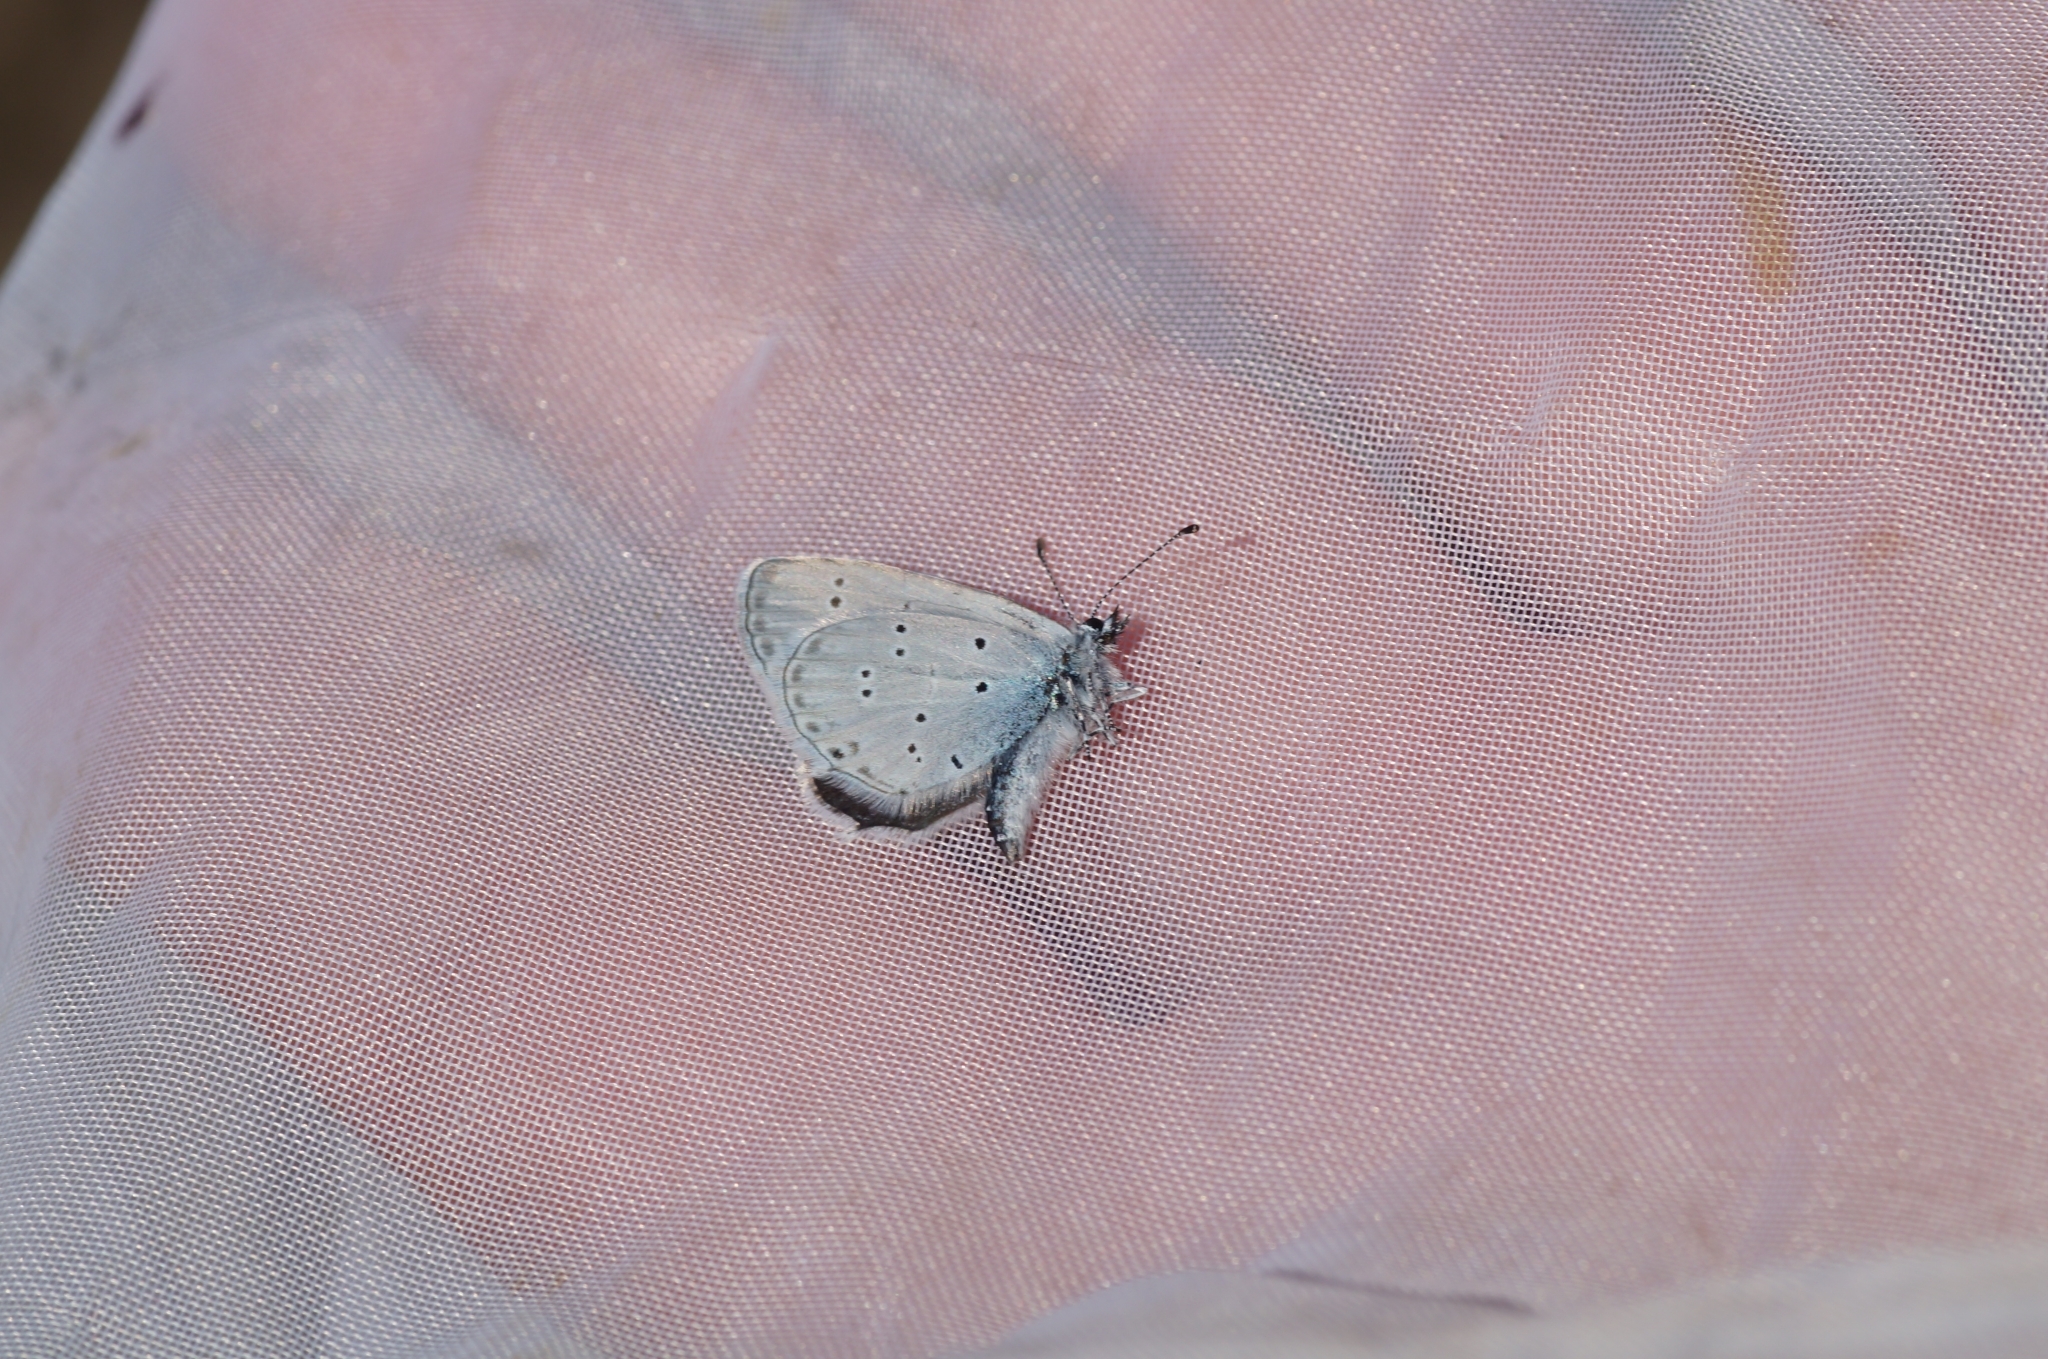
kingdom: Animalia
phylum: Arthropoda
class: Insecta
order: Lepidoptera
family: Lycaenidae
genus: Elkalyce
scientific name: Elkalyce decolorata
